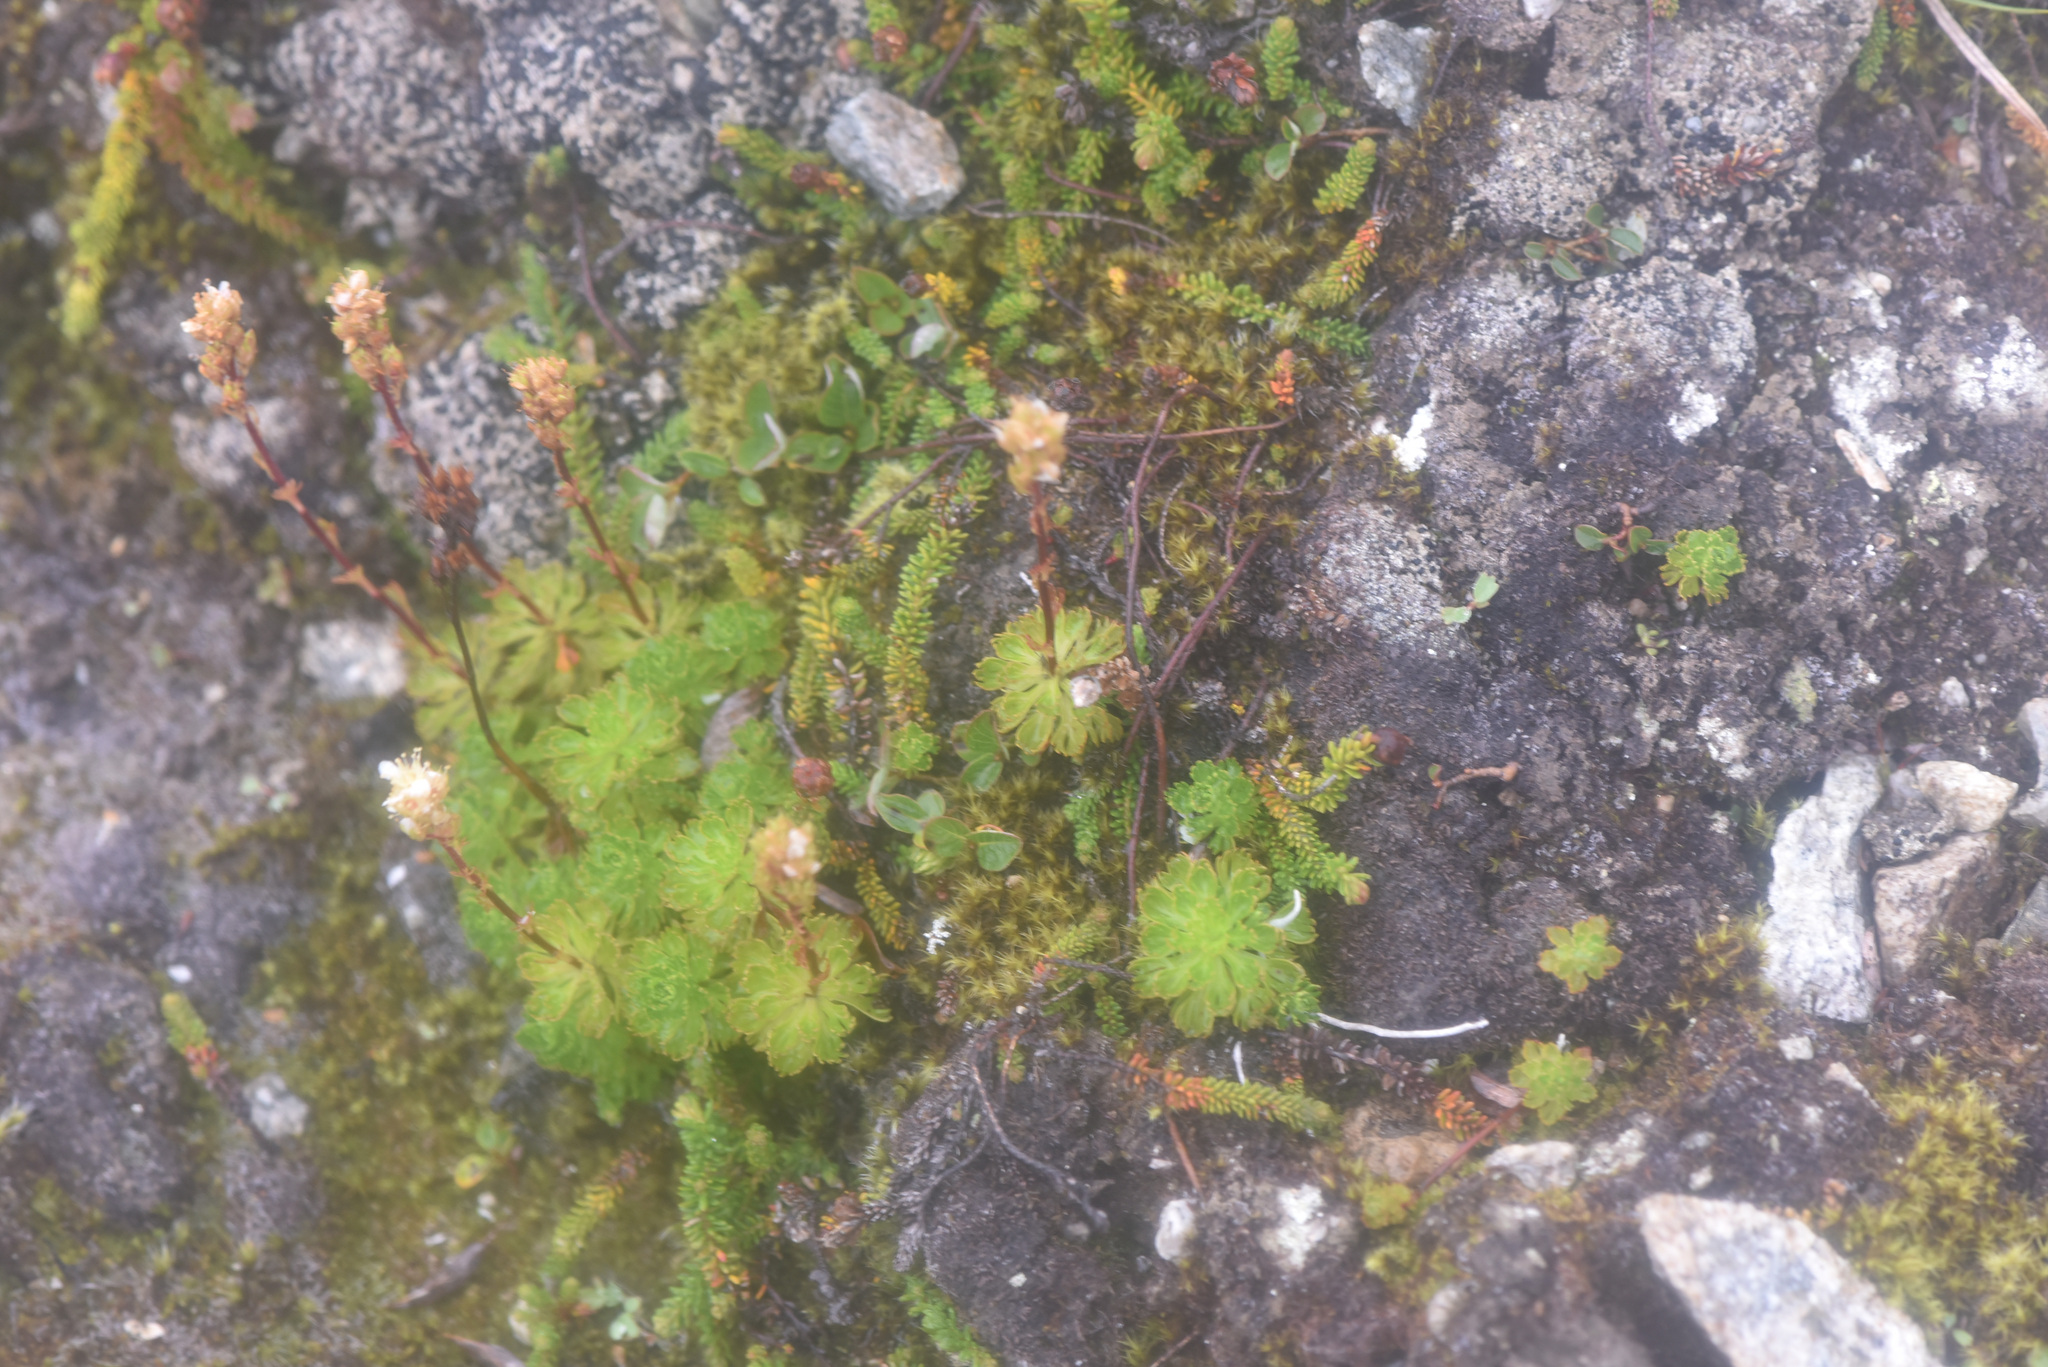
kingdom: Plantae
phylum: Tracheophyta
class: Magnoliopsida
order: Rosales
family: Rosaceae
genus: Luetkea
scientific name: Luetkea pectinata
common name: Partridgefoot
